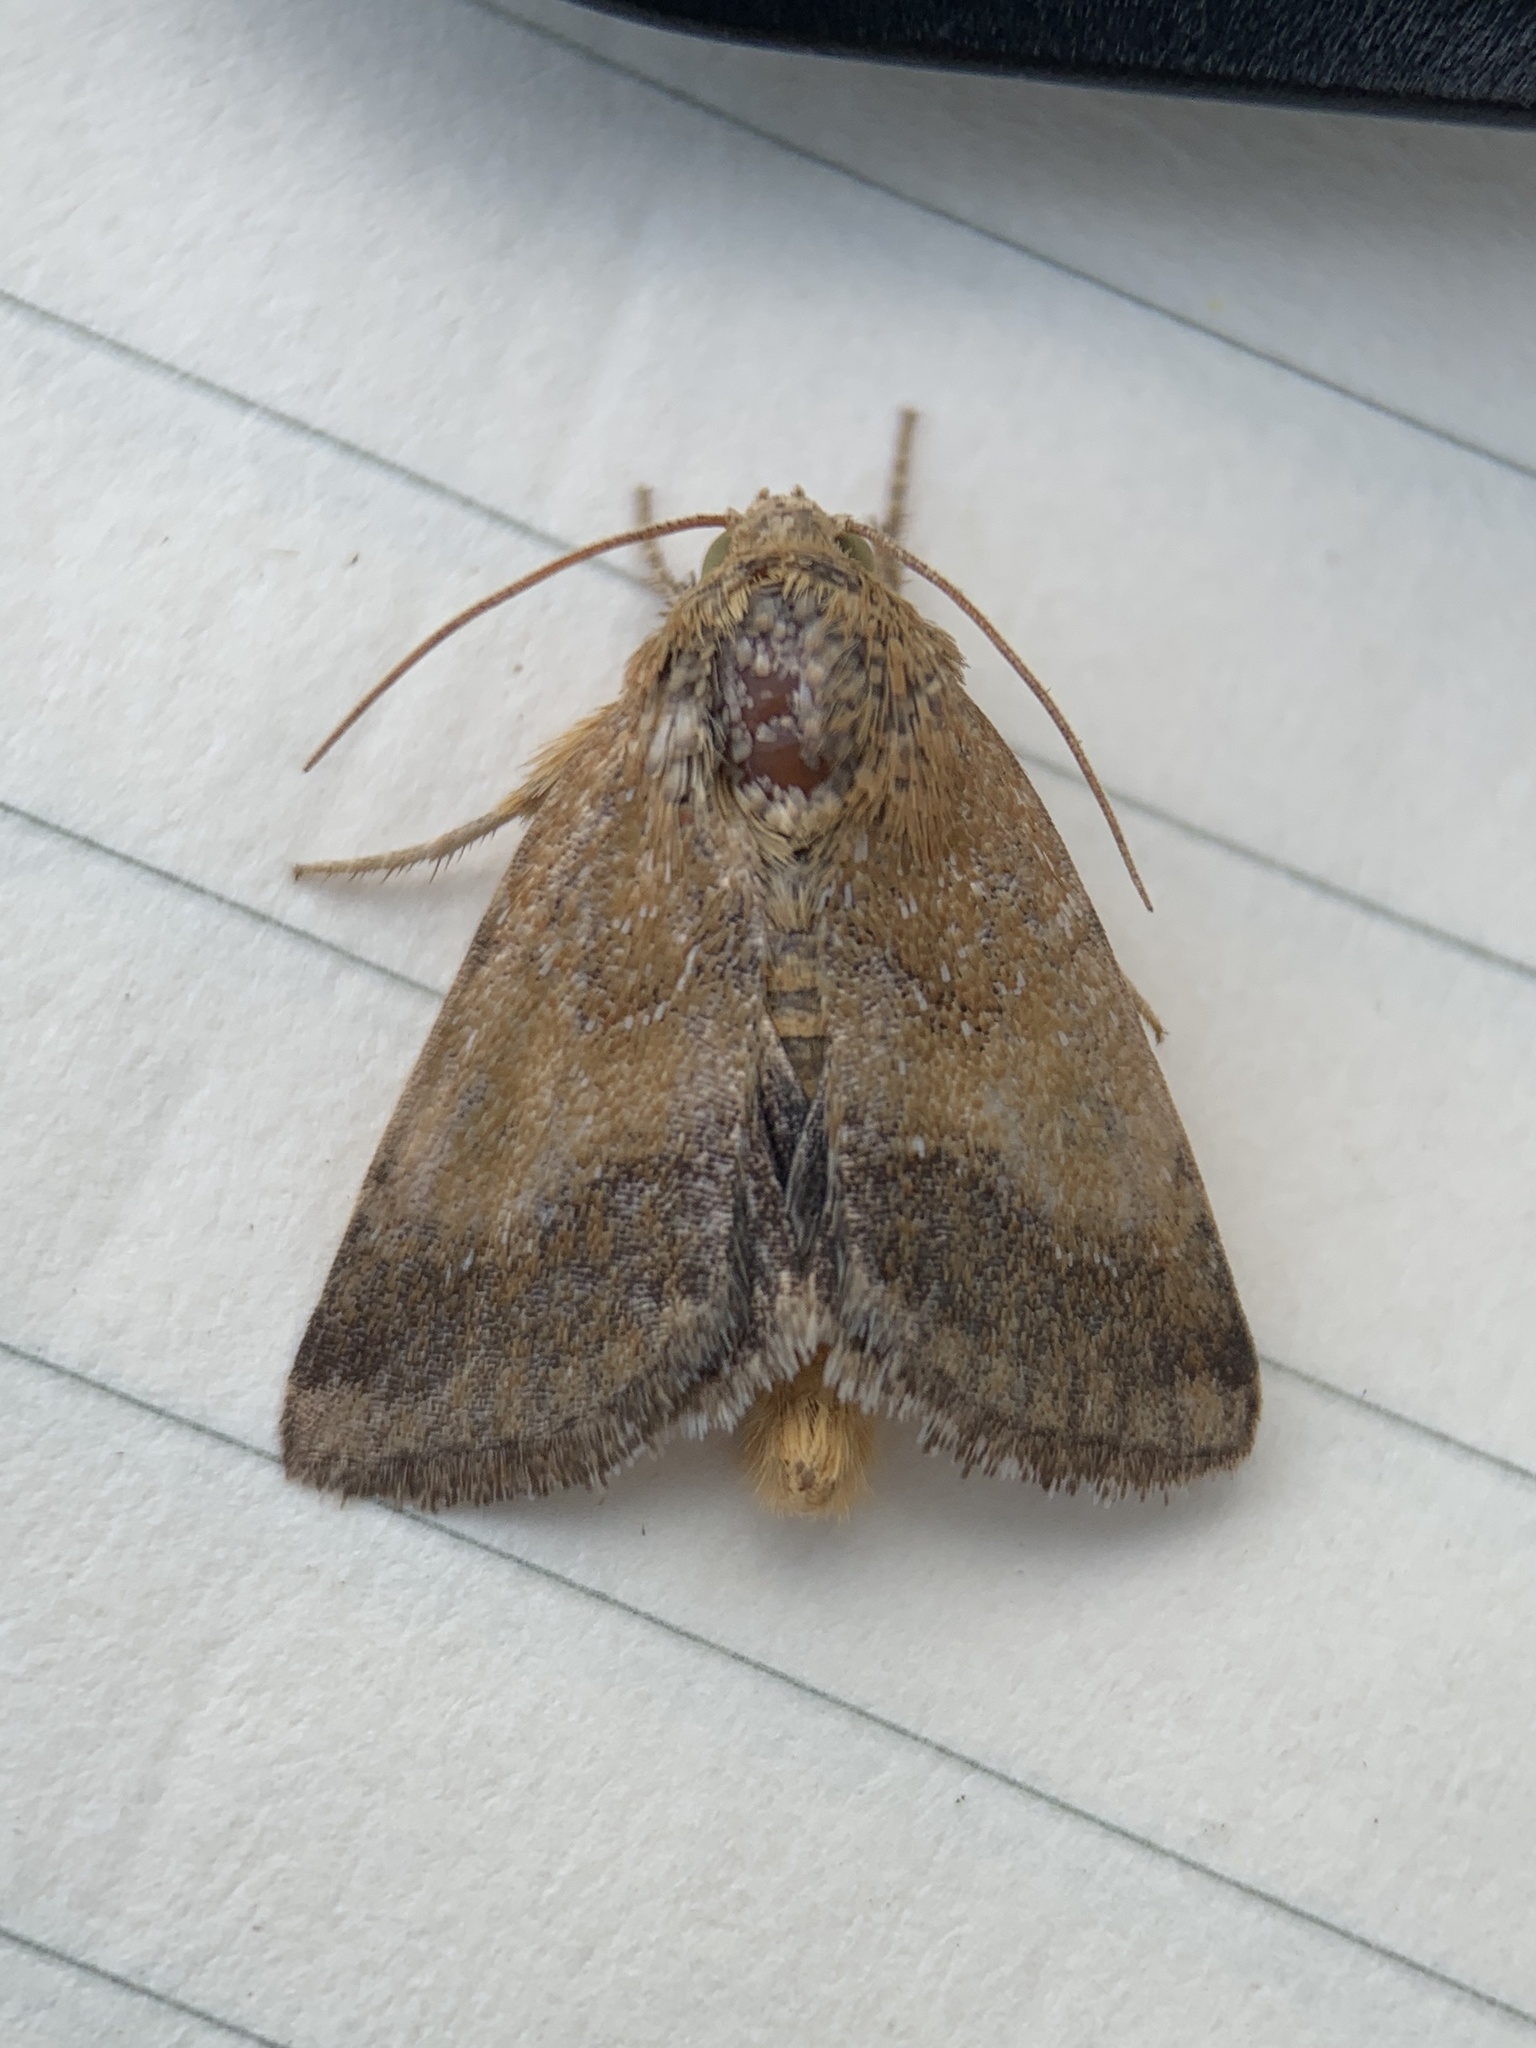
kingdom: Animalia
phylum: Arthropoda
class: Insecta
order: Lepidoptera
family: Noctuidae
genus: Schinia
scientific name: Schinia nubila
